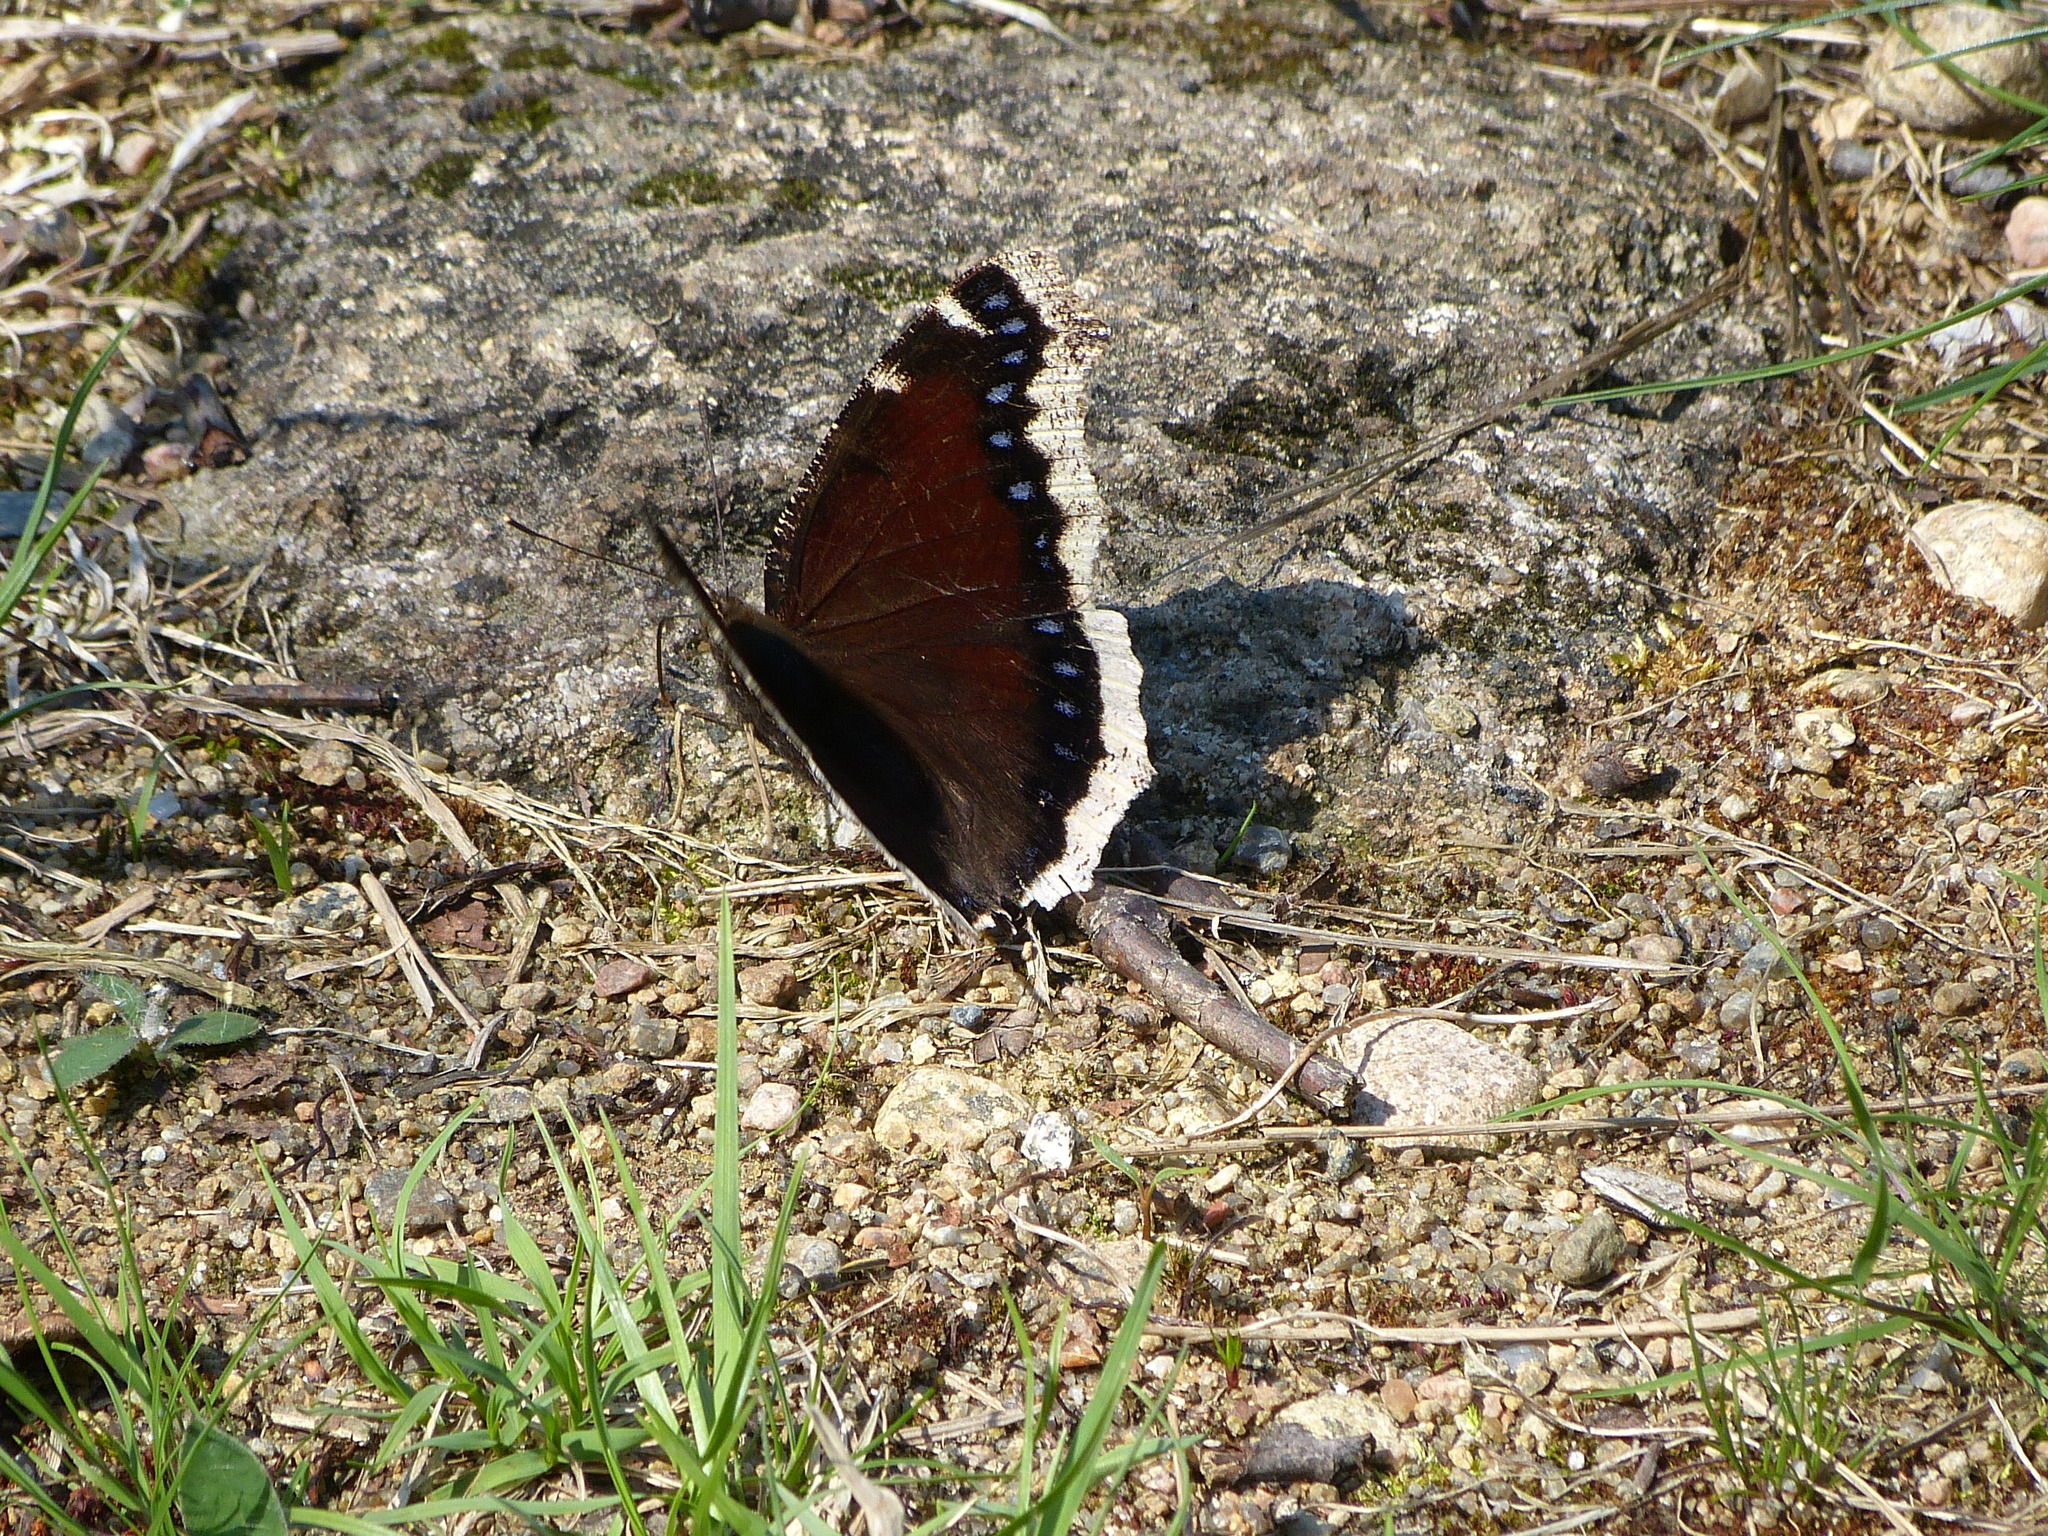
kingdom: Animalia
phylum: Arthropoda
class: Insecta
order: Lepidoptera
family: Nymphalidae
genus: Nymphalis
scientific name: Nymphalis antiopa
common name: Camberwell beauty
